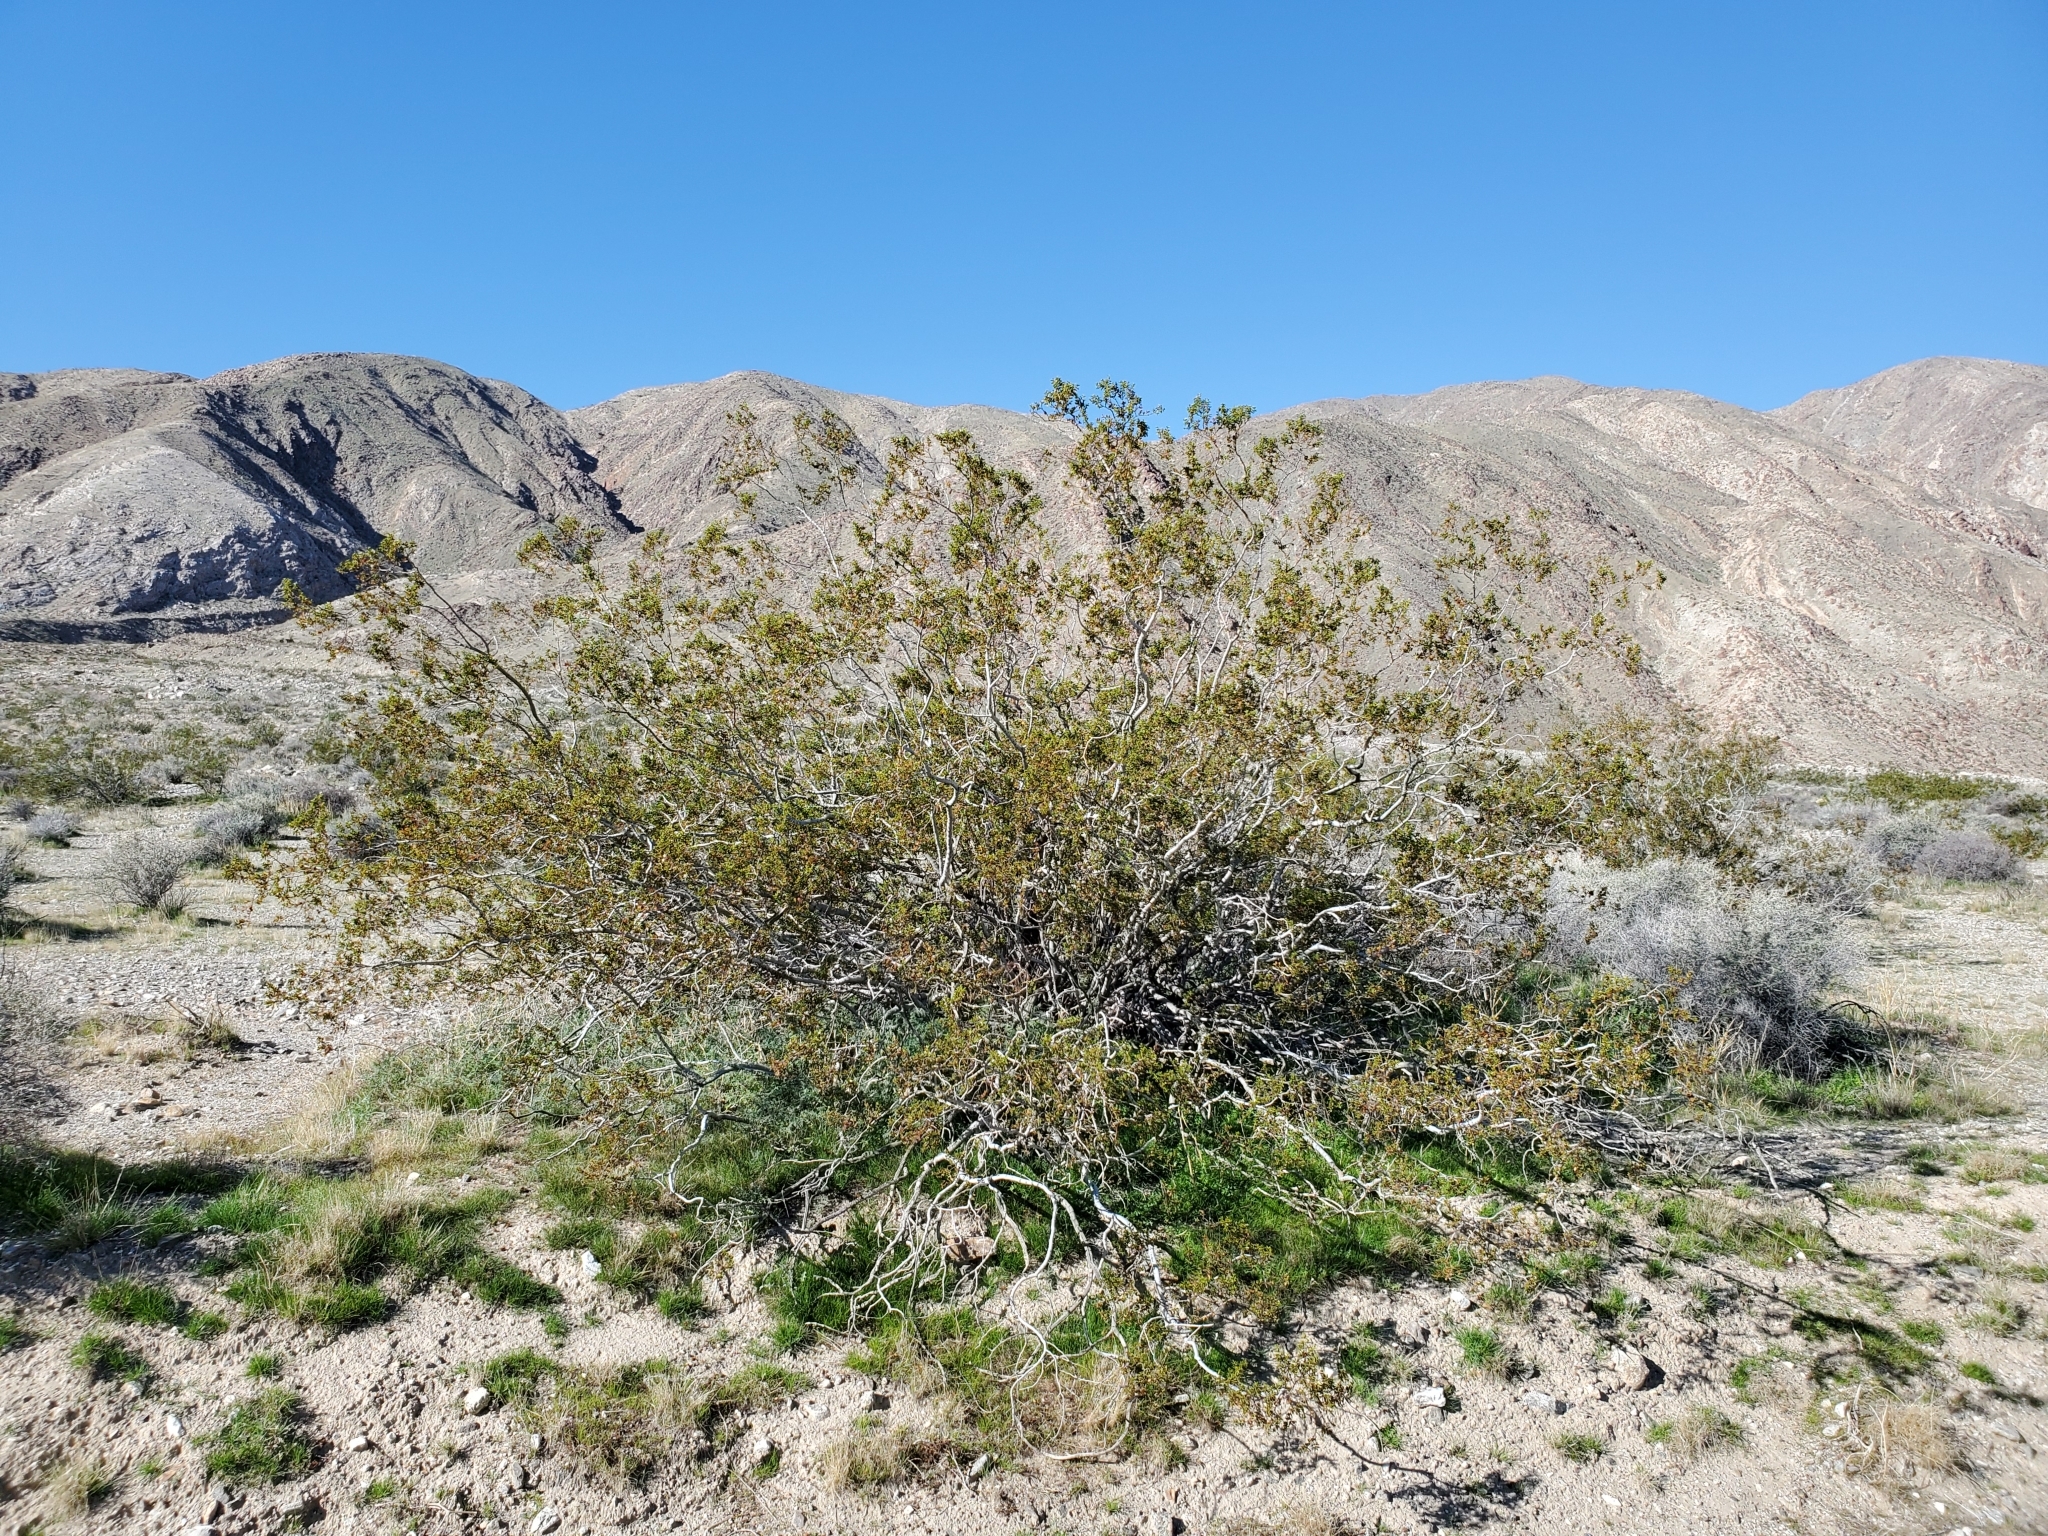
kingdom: Plantae
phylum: Tracheophyta
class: Magnoliopsida
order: Zygophyllales
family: Zygophyllaceae
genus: Larrea
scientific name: Larrea tridentata
